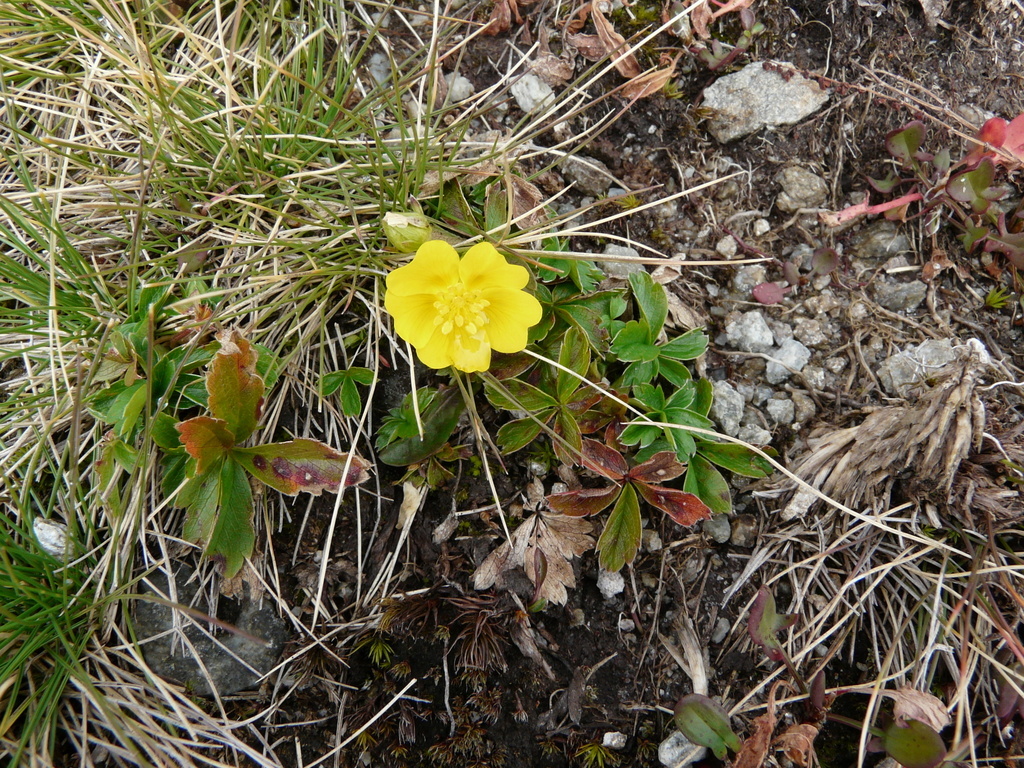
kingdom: Plantae
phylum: Tracheophyta
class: Magnoliopsida
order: Rosales
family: Rosaceae
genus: Potentilla
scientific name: Potentilla aurea
